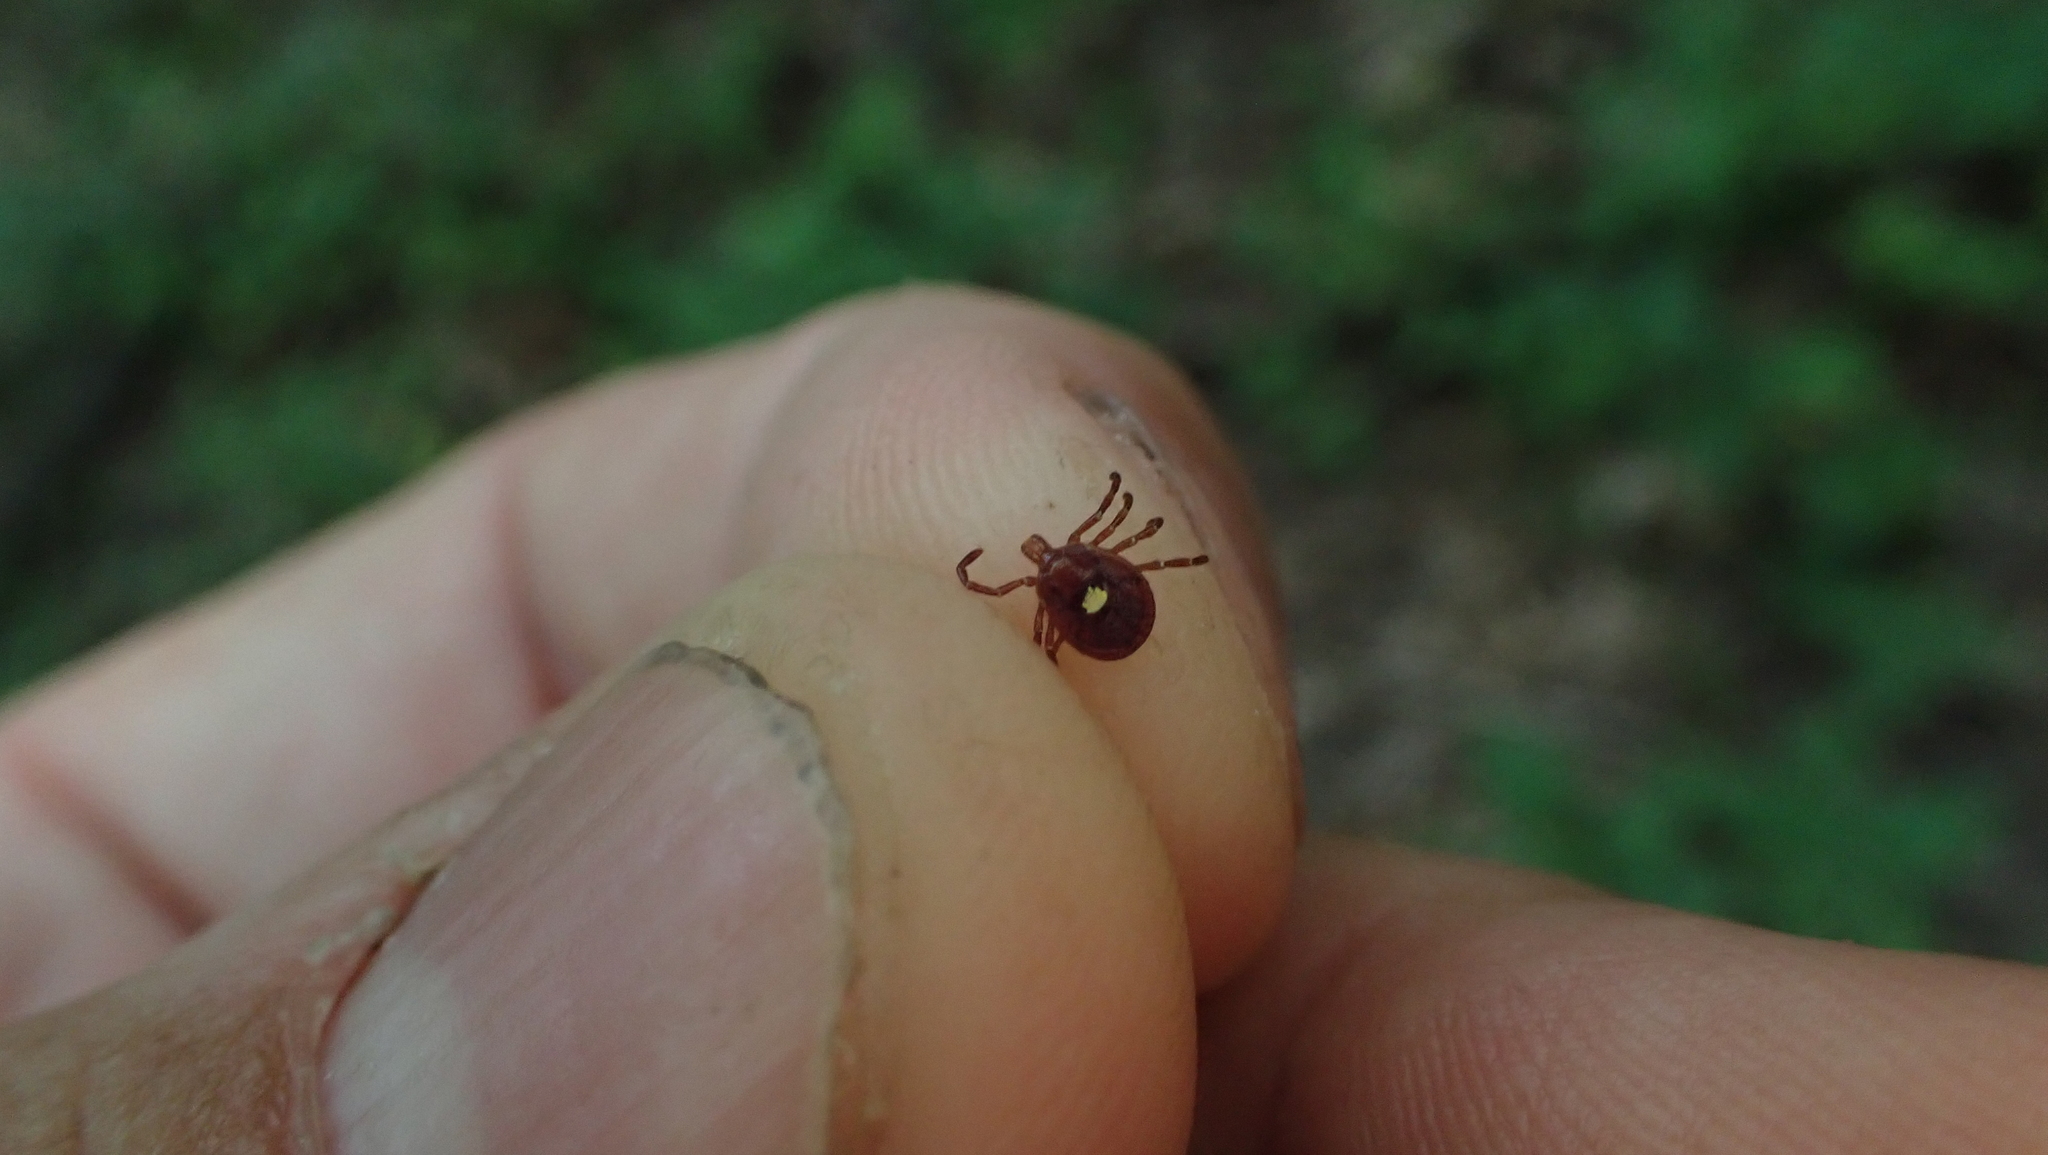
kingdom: Animalia
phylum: Arthropoda
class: Arachnida
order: Ixodida
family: Ixodidae
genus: Amblyomma
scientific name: Amblyomma americanum
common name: Lone star tick
